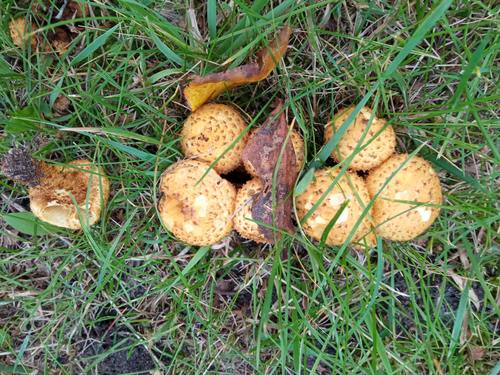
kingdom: Fungi
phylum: Basidiomycota
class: Agaricomycetes
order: Agaricales
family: Strophariaceae
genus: Pholiota
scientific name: Pholiota kodiakensis
